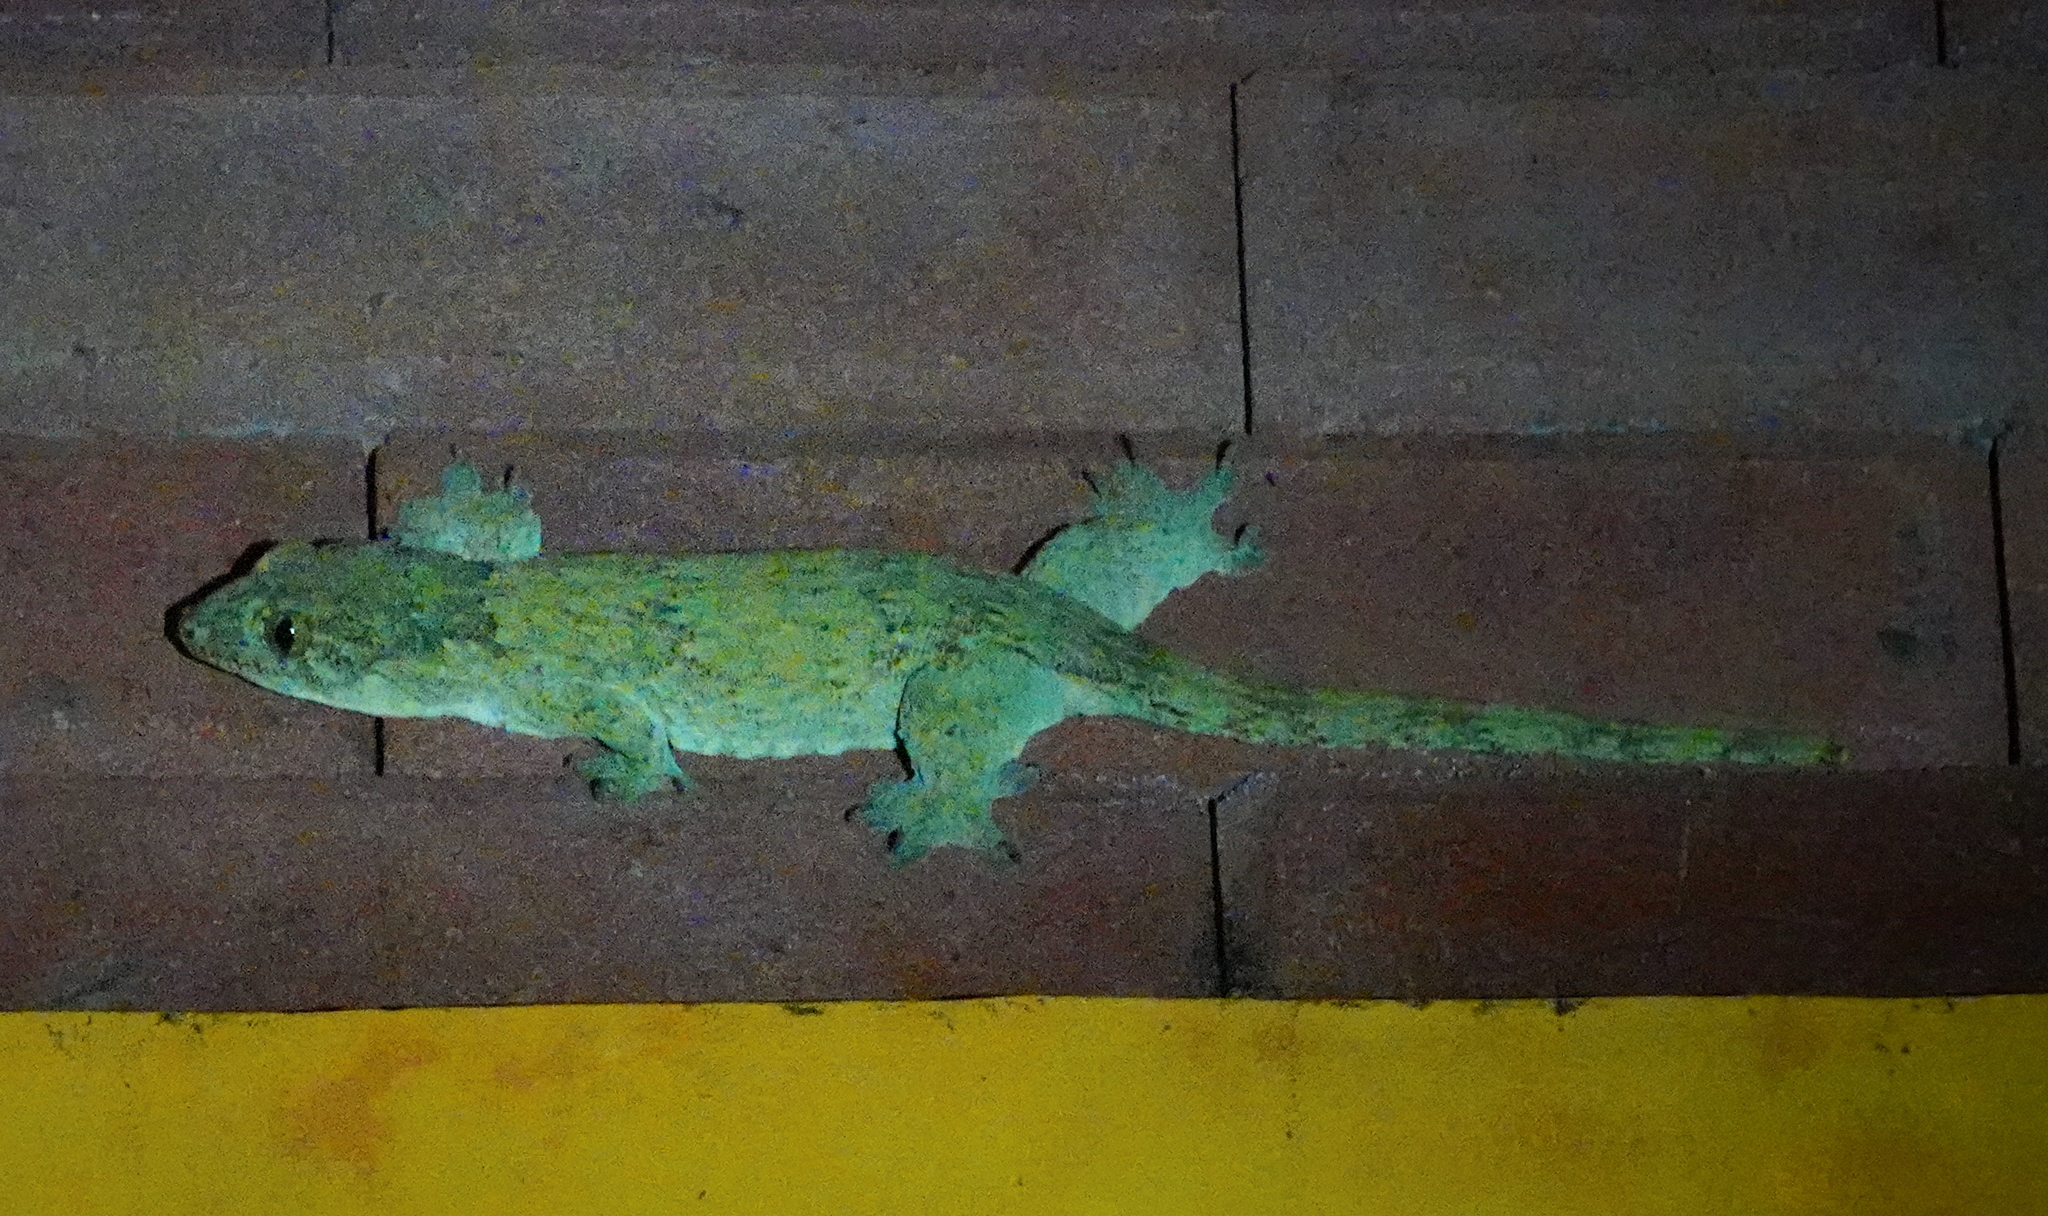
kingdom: Animalia
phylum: Chordata
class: Squamata
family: Gekkonidae
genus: Gehyra
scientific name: Gehyra marginata
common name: Ternate dtella
